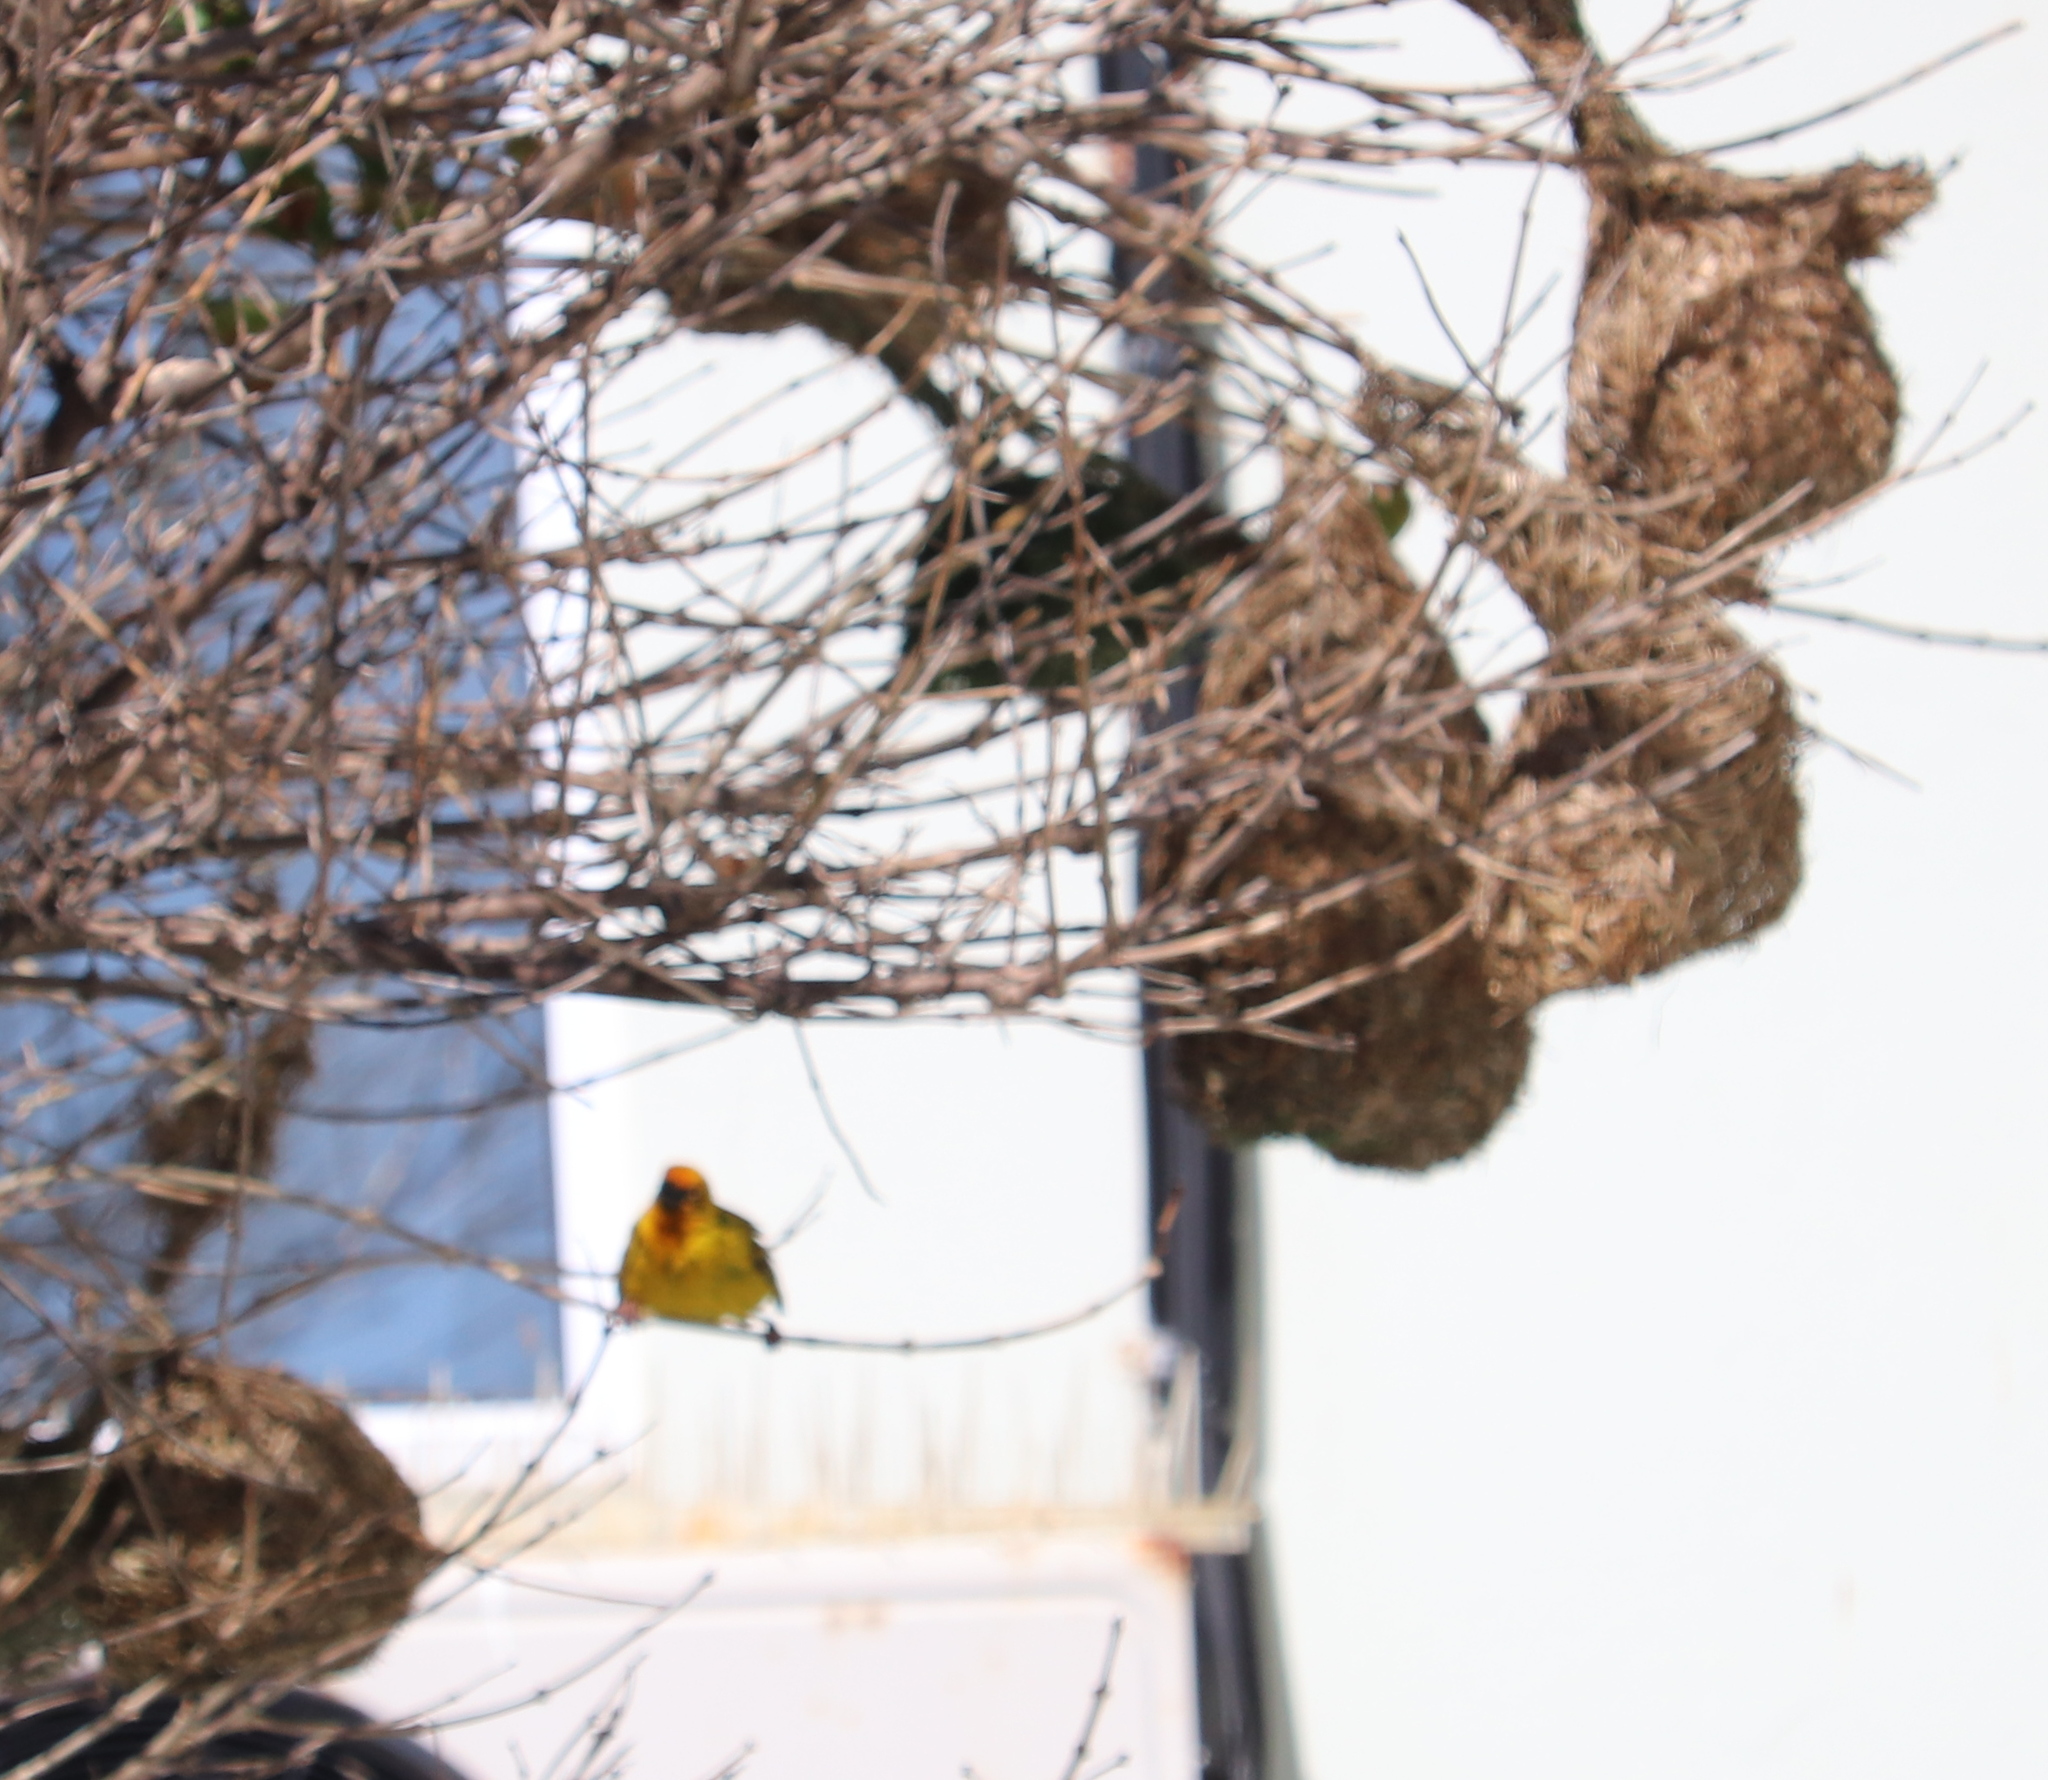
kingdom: Animalia
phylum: Chordata
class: Aves
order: Passeriformes
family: Ploceidae
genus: Ploceus
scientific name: Ploceus capensis
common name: Cape weaver
